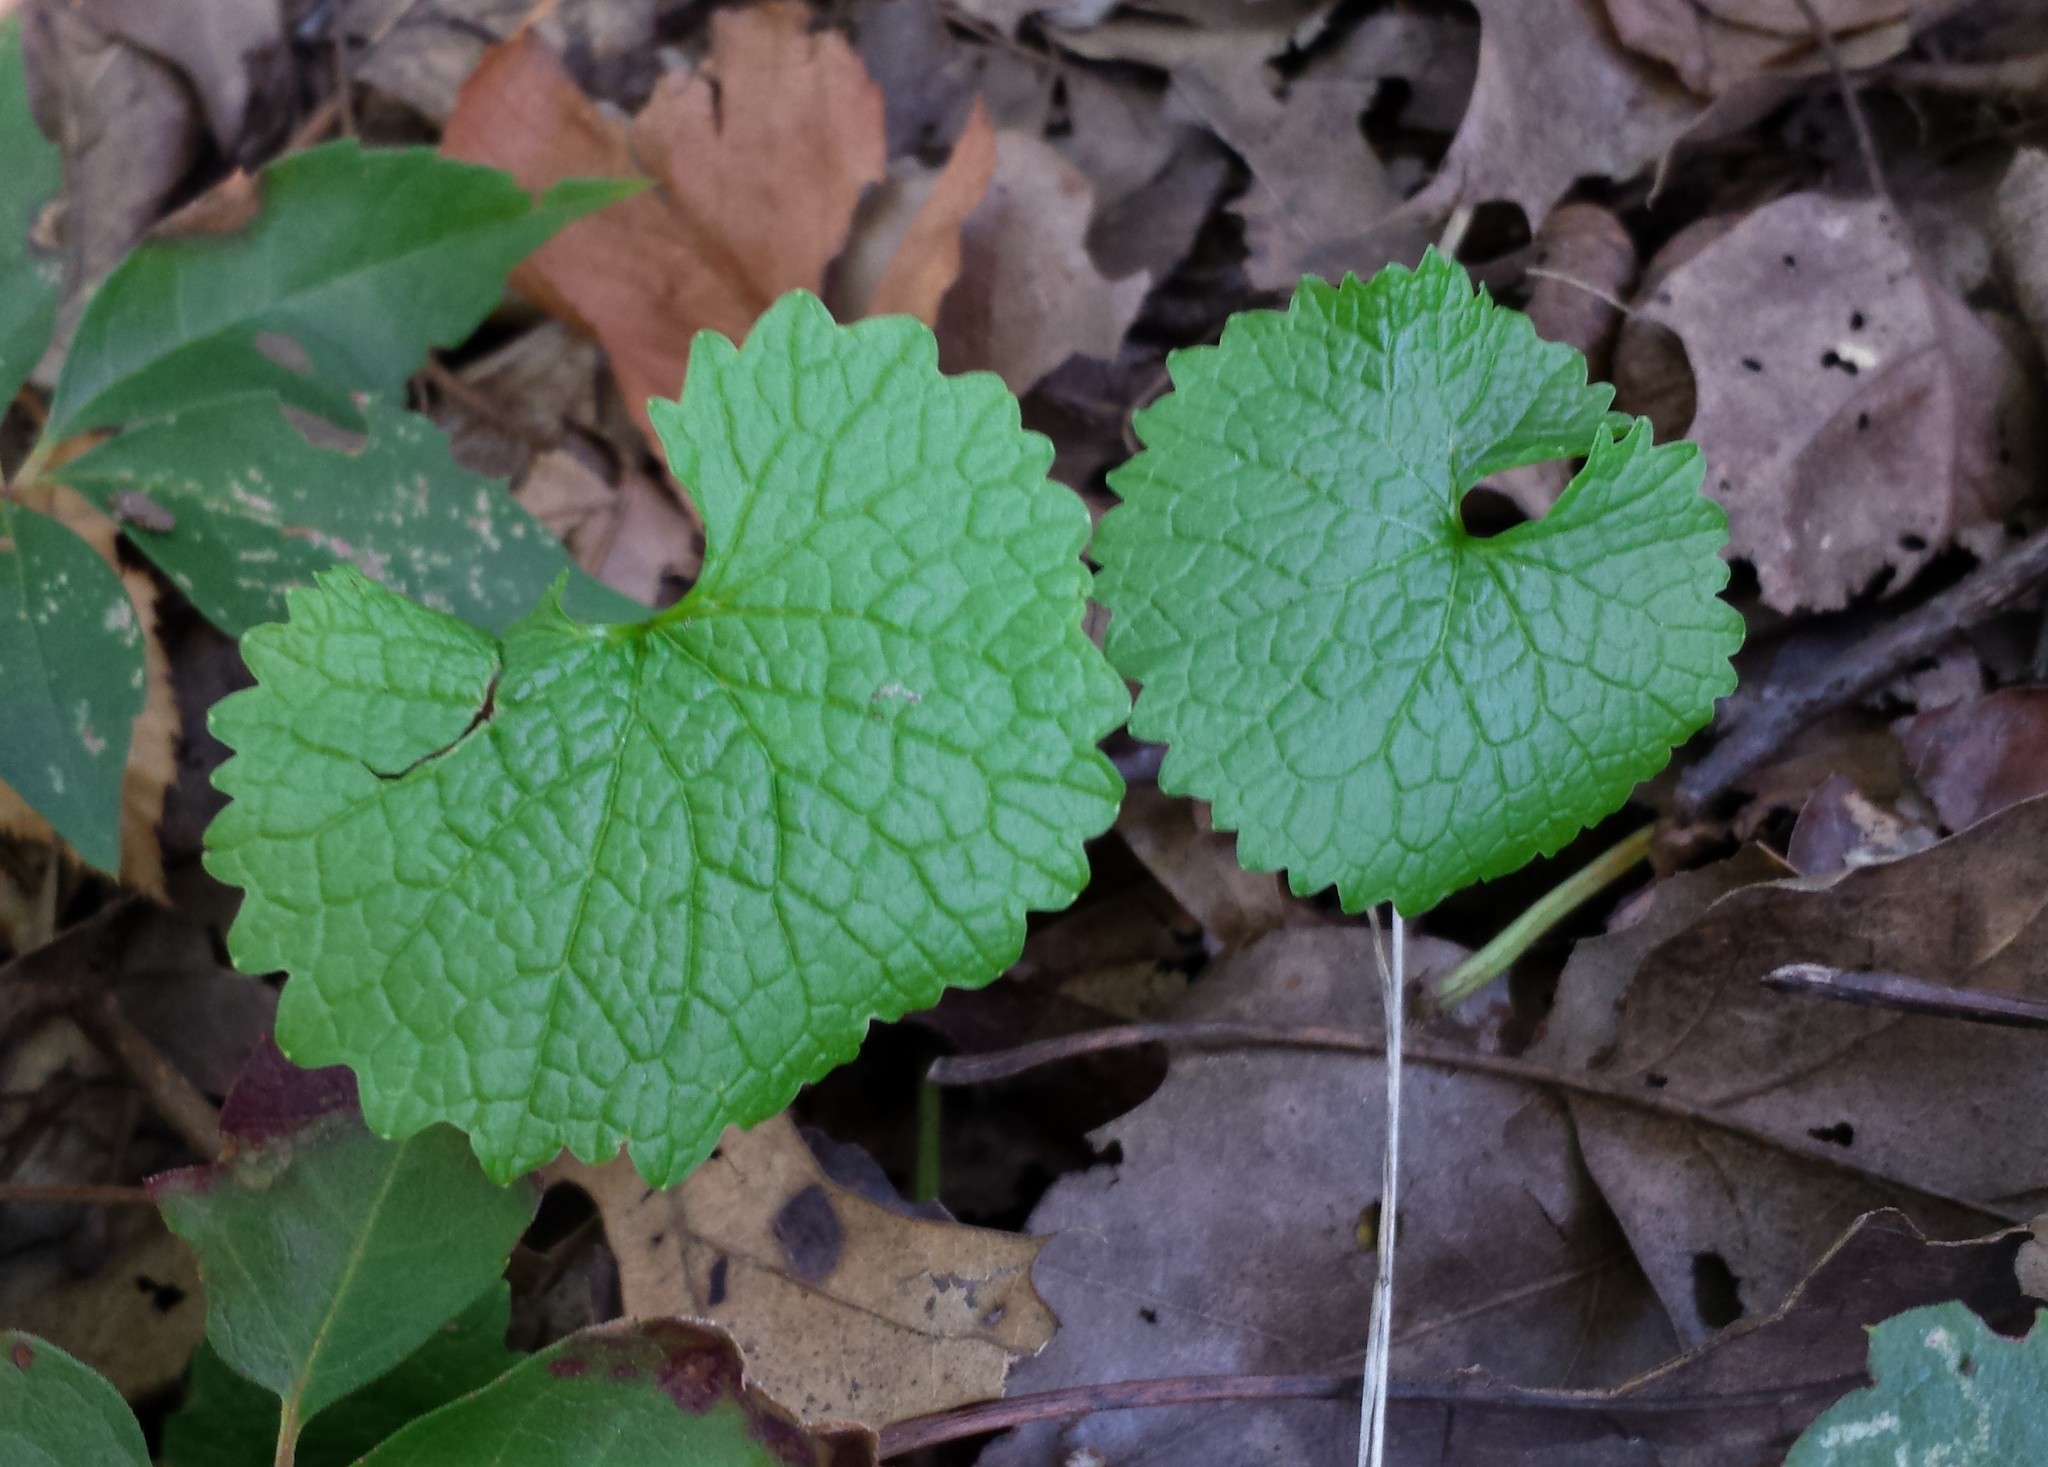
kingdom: Plantae
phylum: Tracheophyta
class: Magnoliopsida
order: Brassicales
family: Brassicaceae
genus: Alliaria
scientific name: Alliaria petiolata
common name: Garlic mustard
